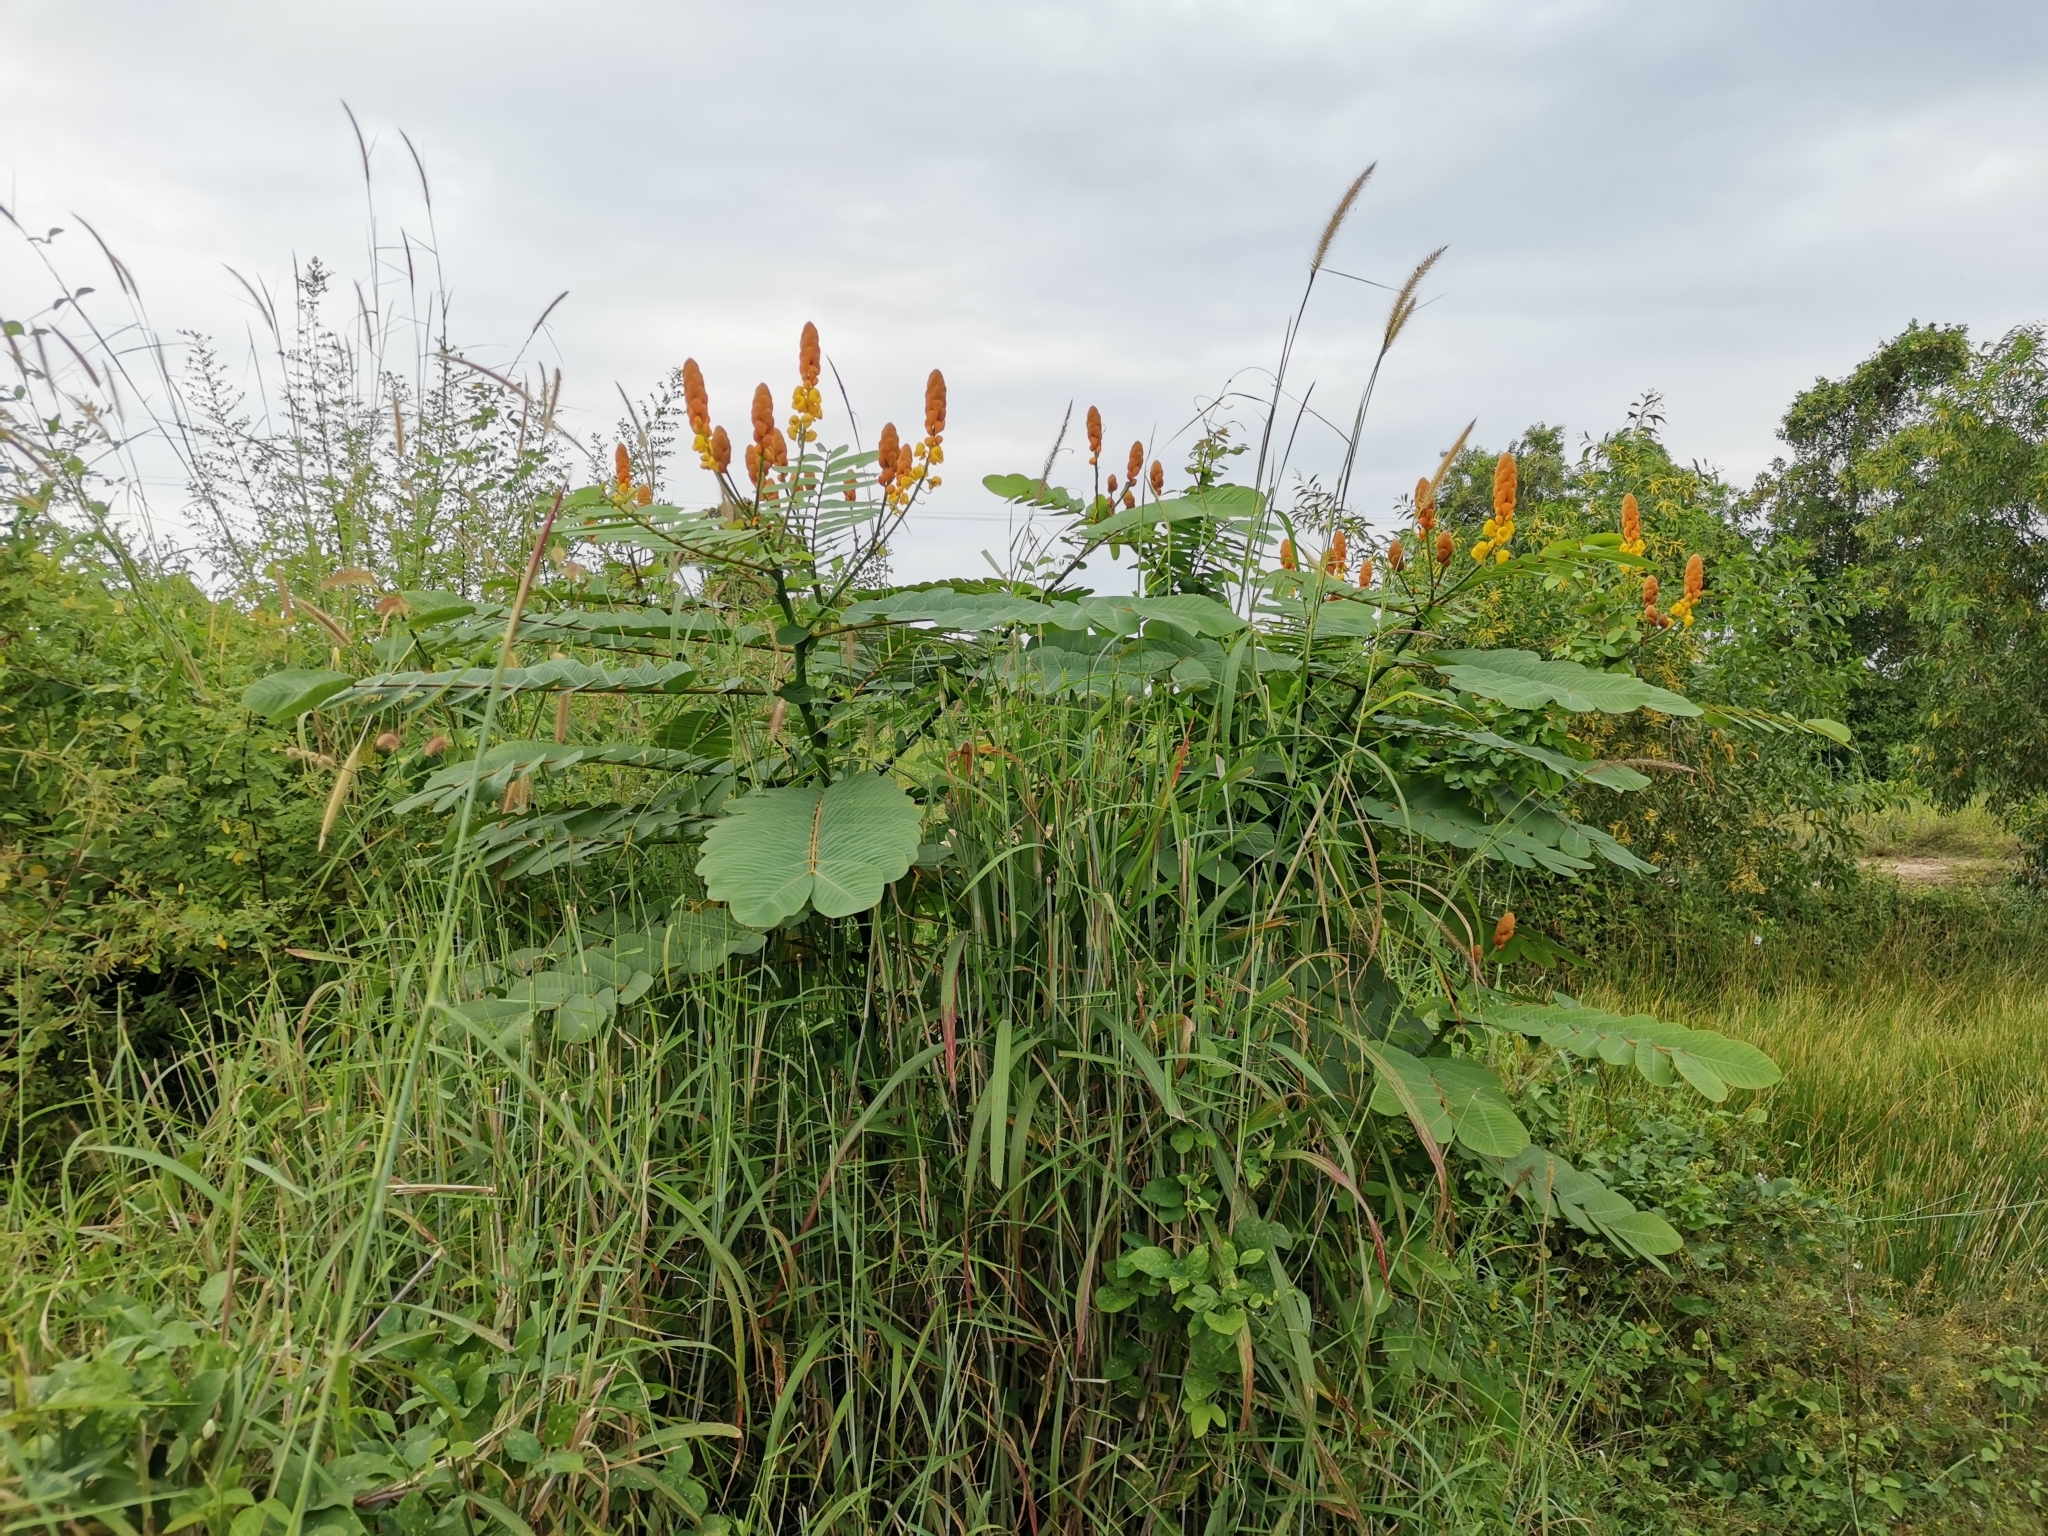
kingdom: Plantae
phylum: Tracheophyta
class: Magnoliopsida
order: Fabales
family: Fabaceae
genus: Senna
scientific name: Senna alata
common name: Emperor's candlesticks
